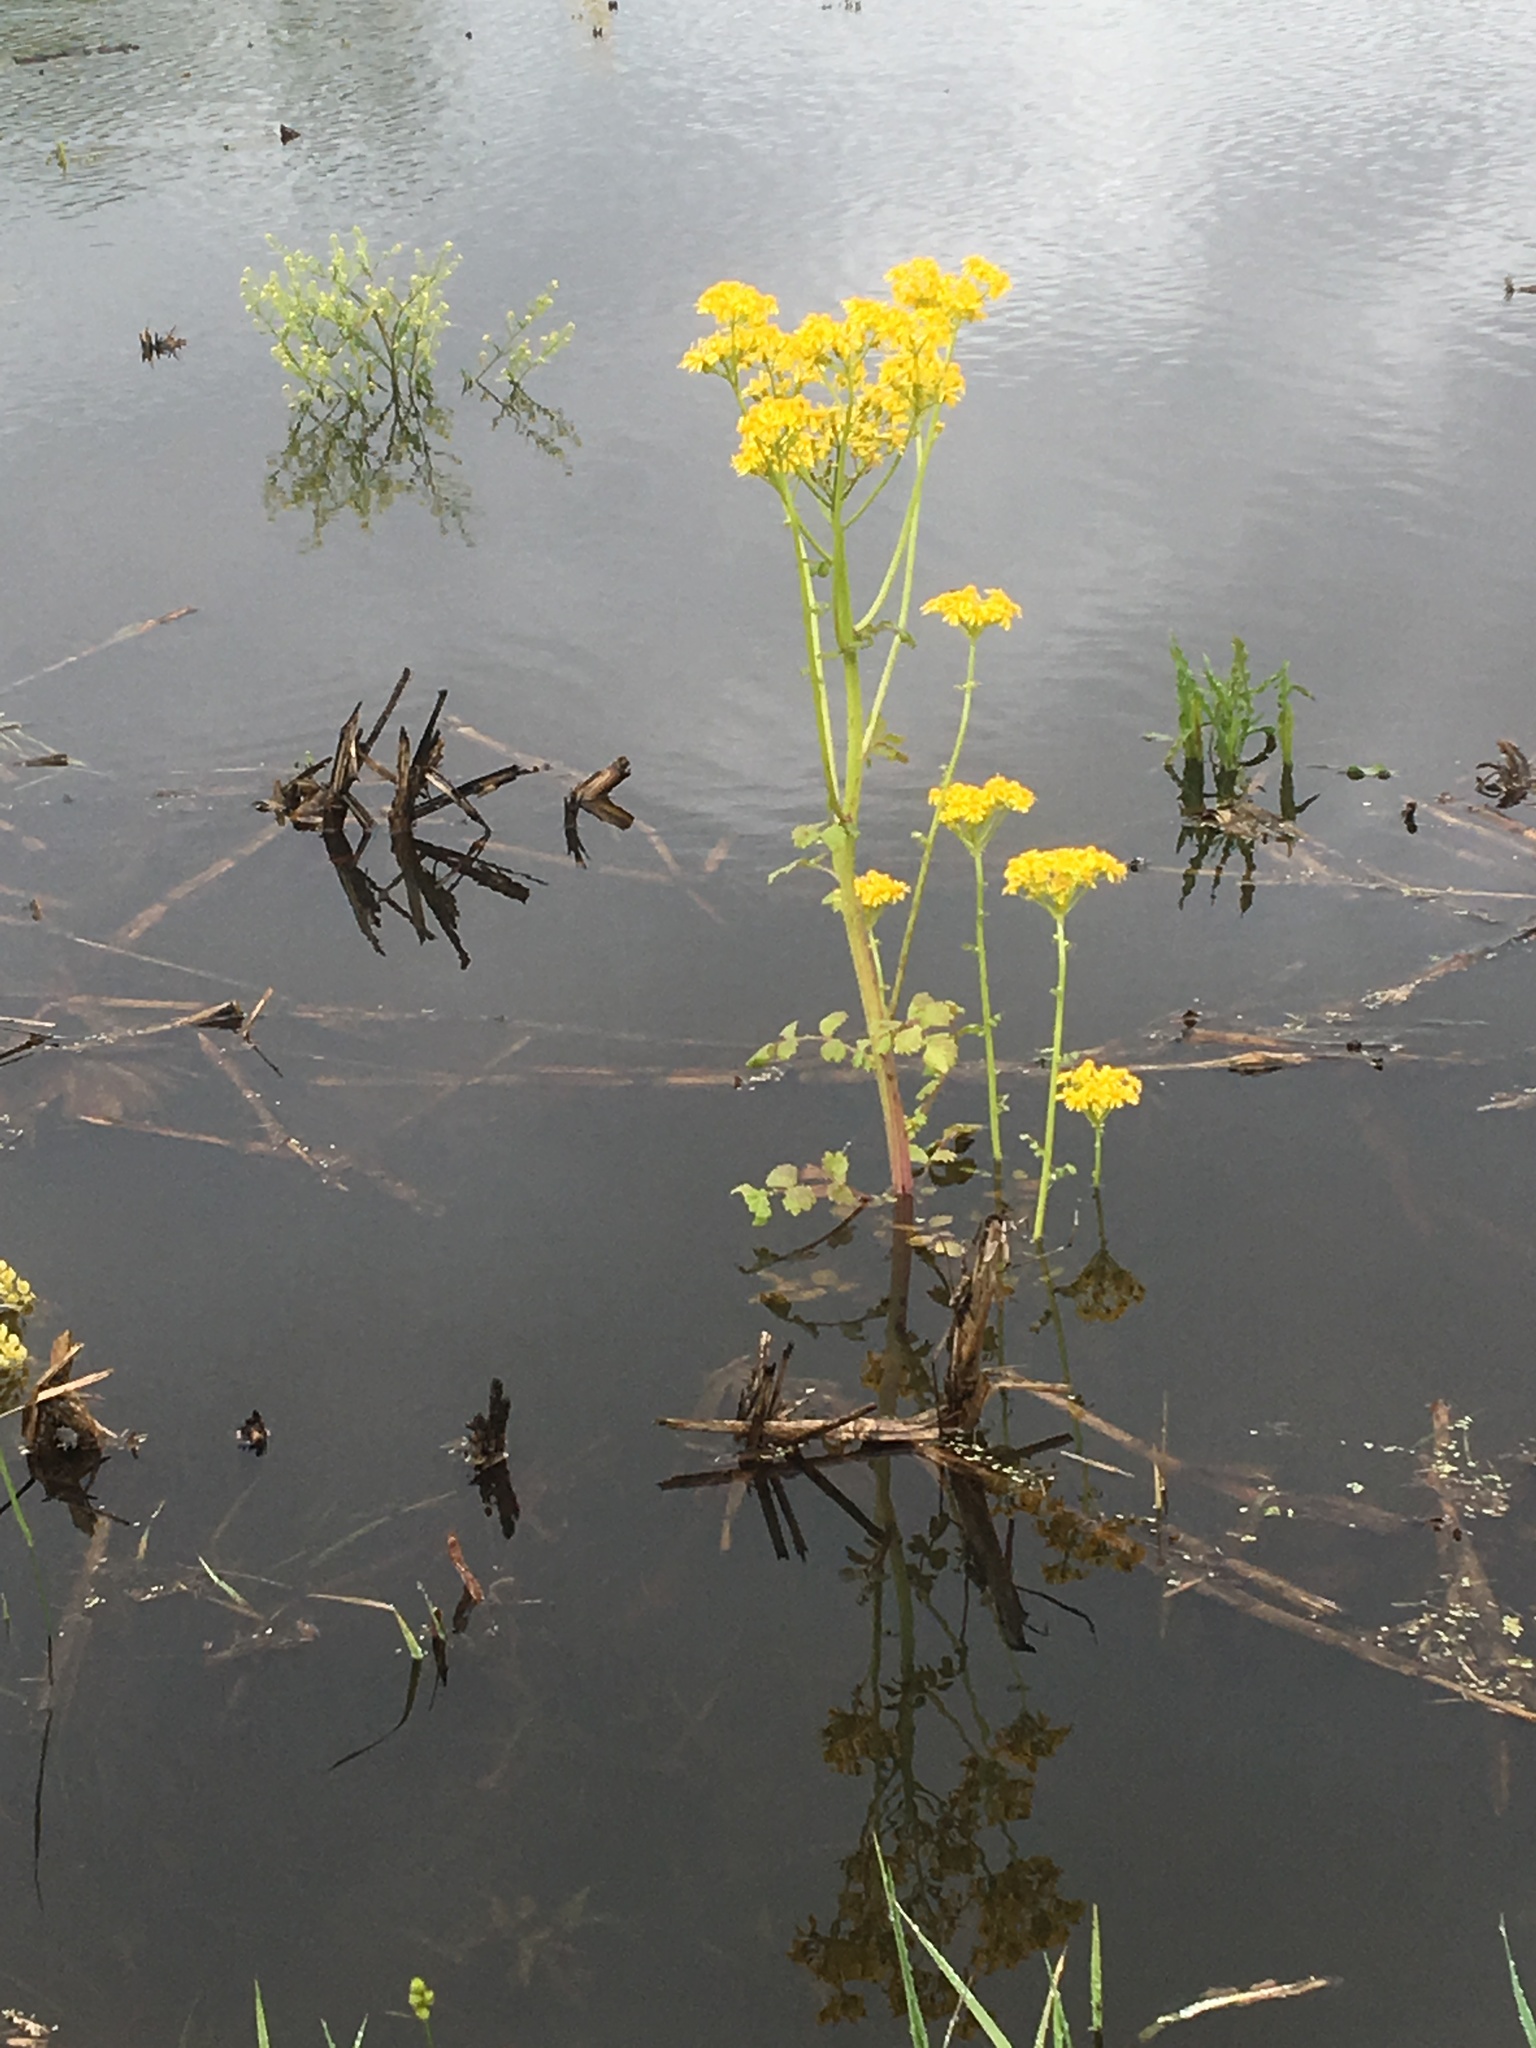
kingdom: Plantae
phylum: Tracheophyta
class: Magnoliopsida
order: Asterales
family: Asteraceae
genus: Packera
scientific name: Packera glabella
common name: Butterweed
